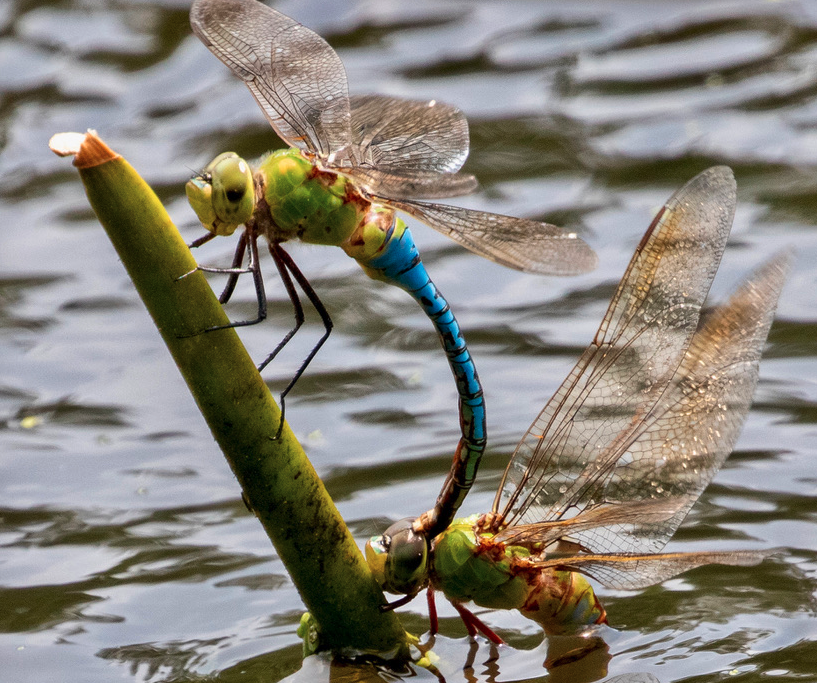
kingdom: Animalia
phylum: Arthropoda
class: Insecta
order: Odonata
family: Aeshnidae
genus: Anax
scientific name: Anax junius
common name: Common green darner
